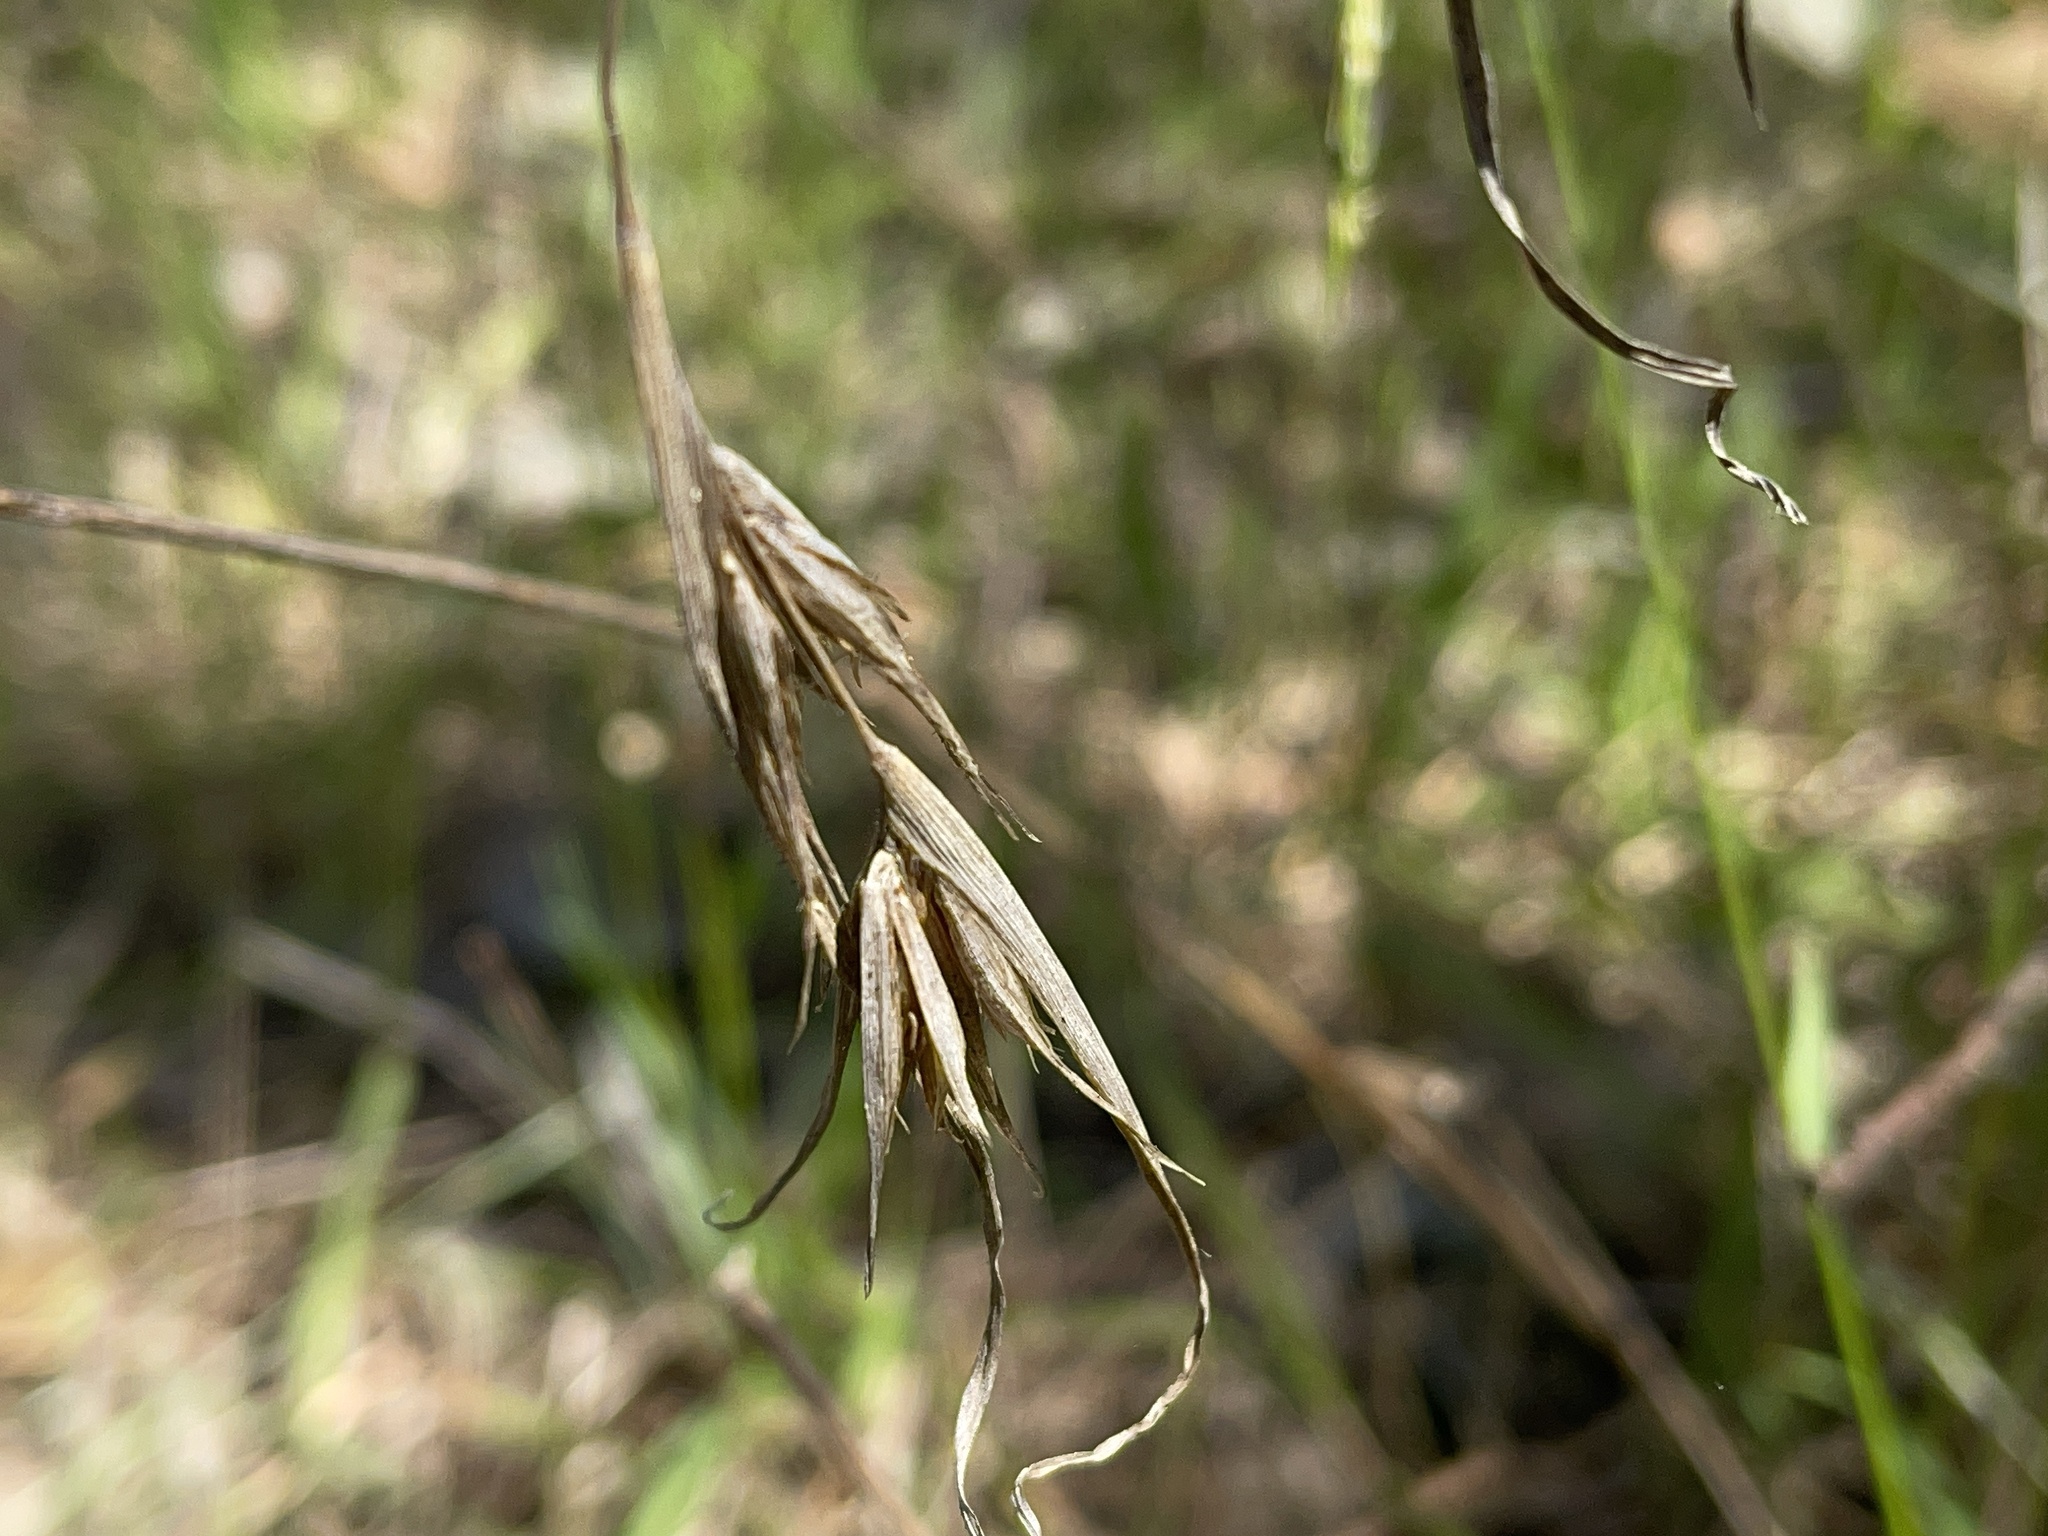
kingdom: Plantae
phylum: Tracheophyta
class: Liliopsida
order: Poales
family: Poaceae
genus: Themeda
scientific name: Themeda triandra
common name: Kangaroo grass
